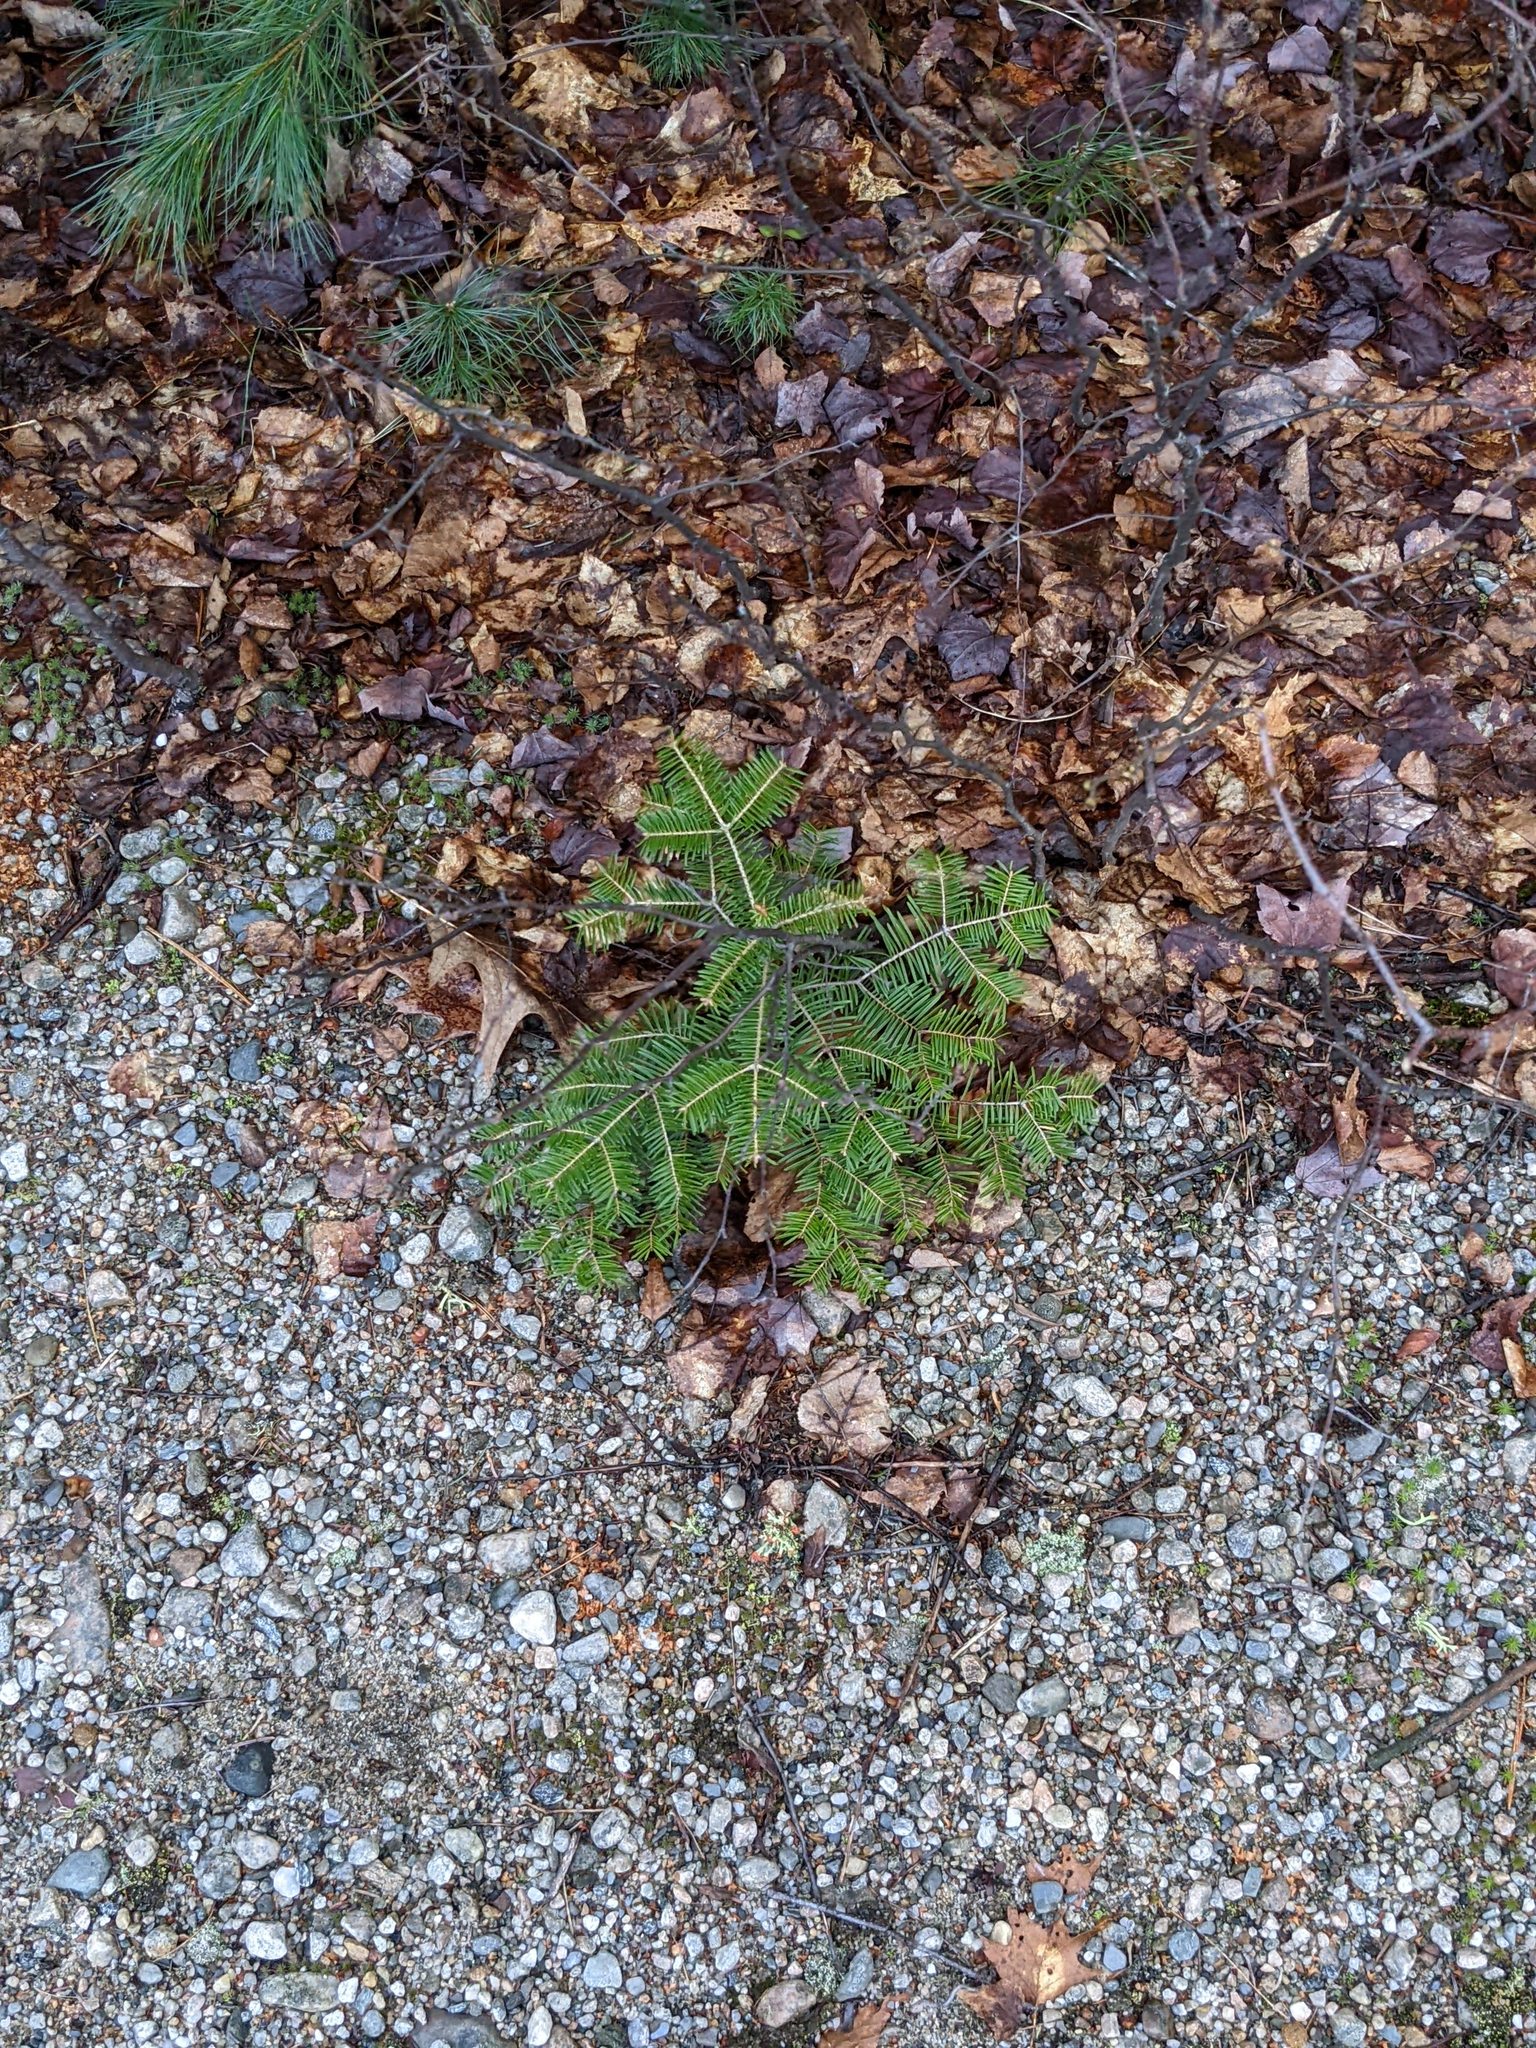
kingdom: Plantae
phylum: Tracheophyta
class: Pinopsida
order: Pinales
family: Pinaceae
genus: Abies
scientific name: Abies balsamea
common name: Balsam fir
